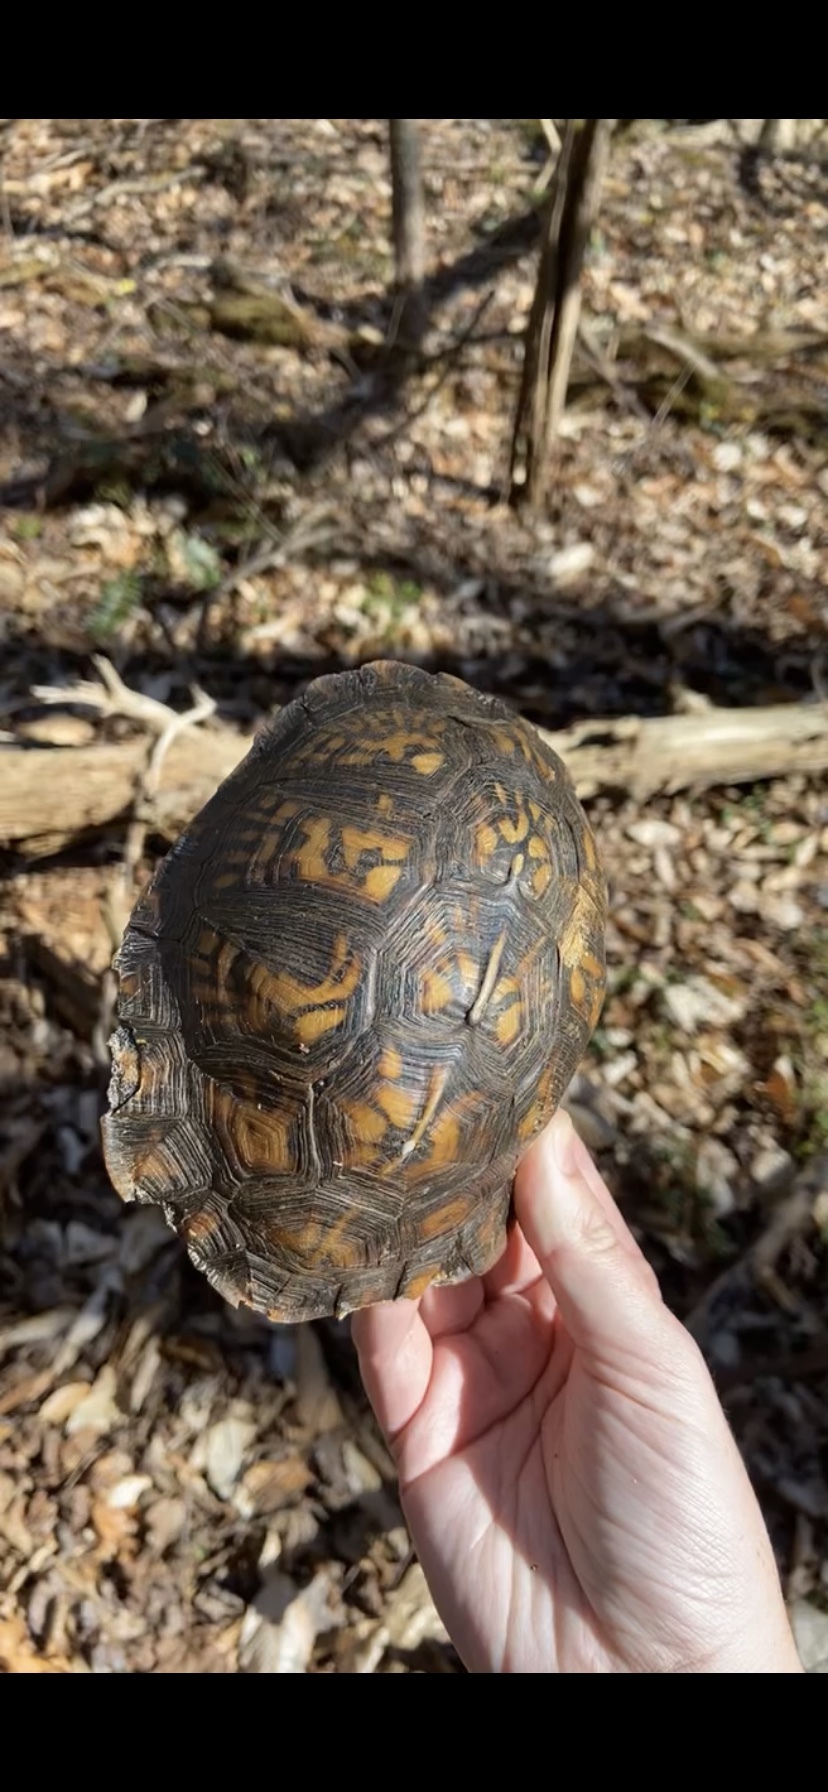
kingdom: Animalia
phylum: Chordata
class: Testudines
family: Emydidae
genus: Terrapene
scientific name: Terrapene carolina
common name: Common box turtle
